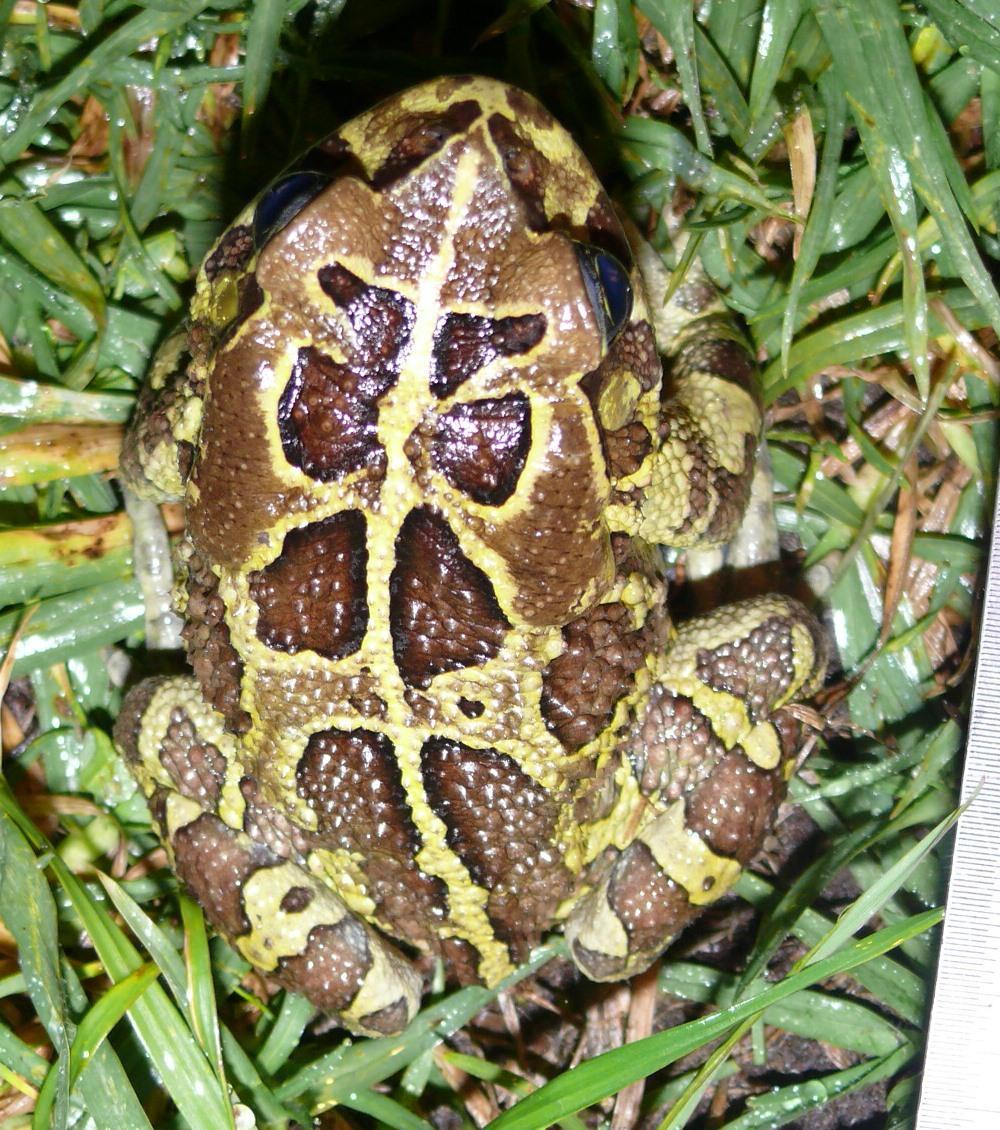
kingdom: Animalia
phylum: Chordata
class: Amphibia
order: Anura
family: Bufonidae
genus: Sclerophrys
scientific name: Sclerophrys pantherina
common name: Panther toad
